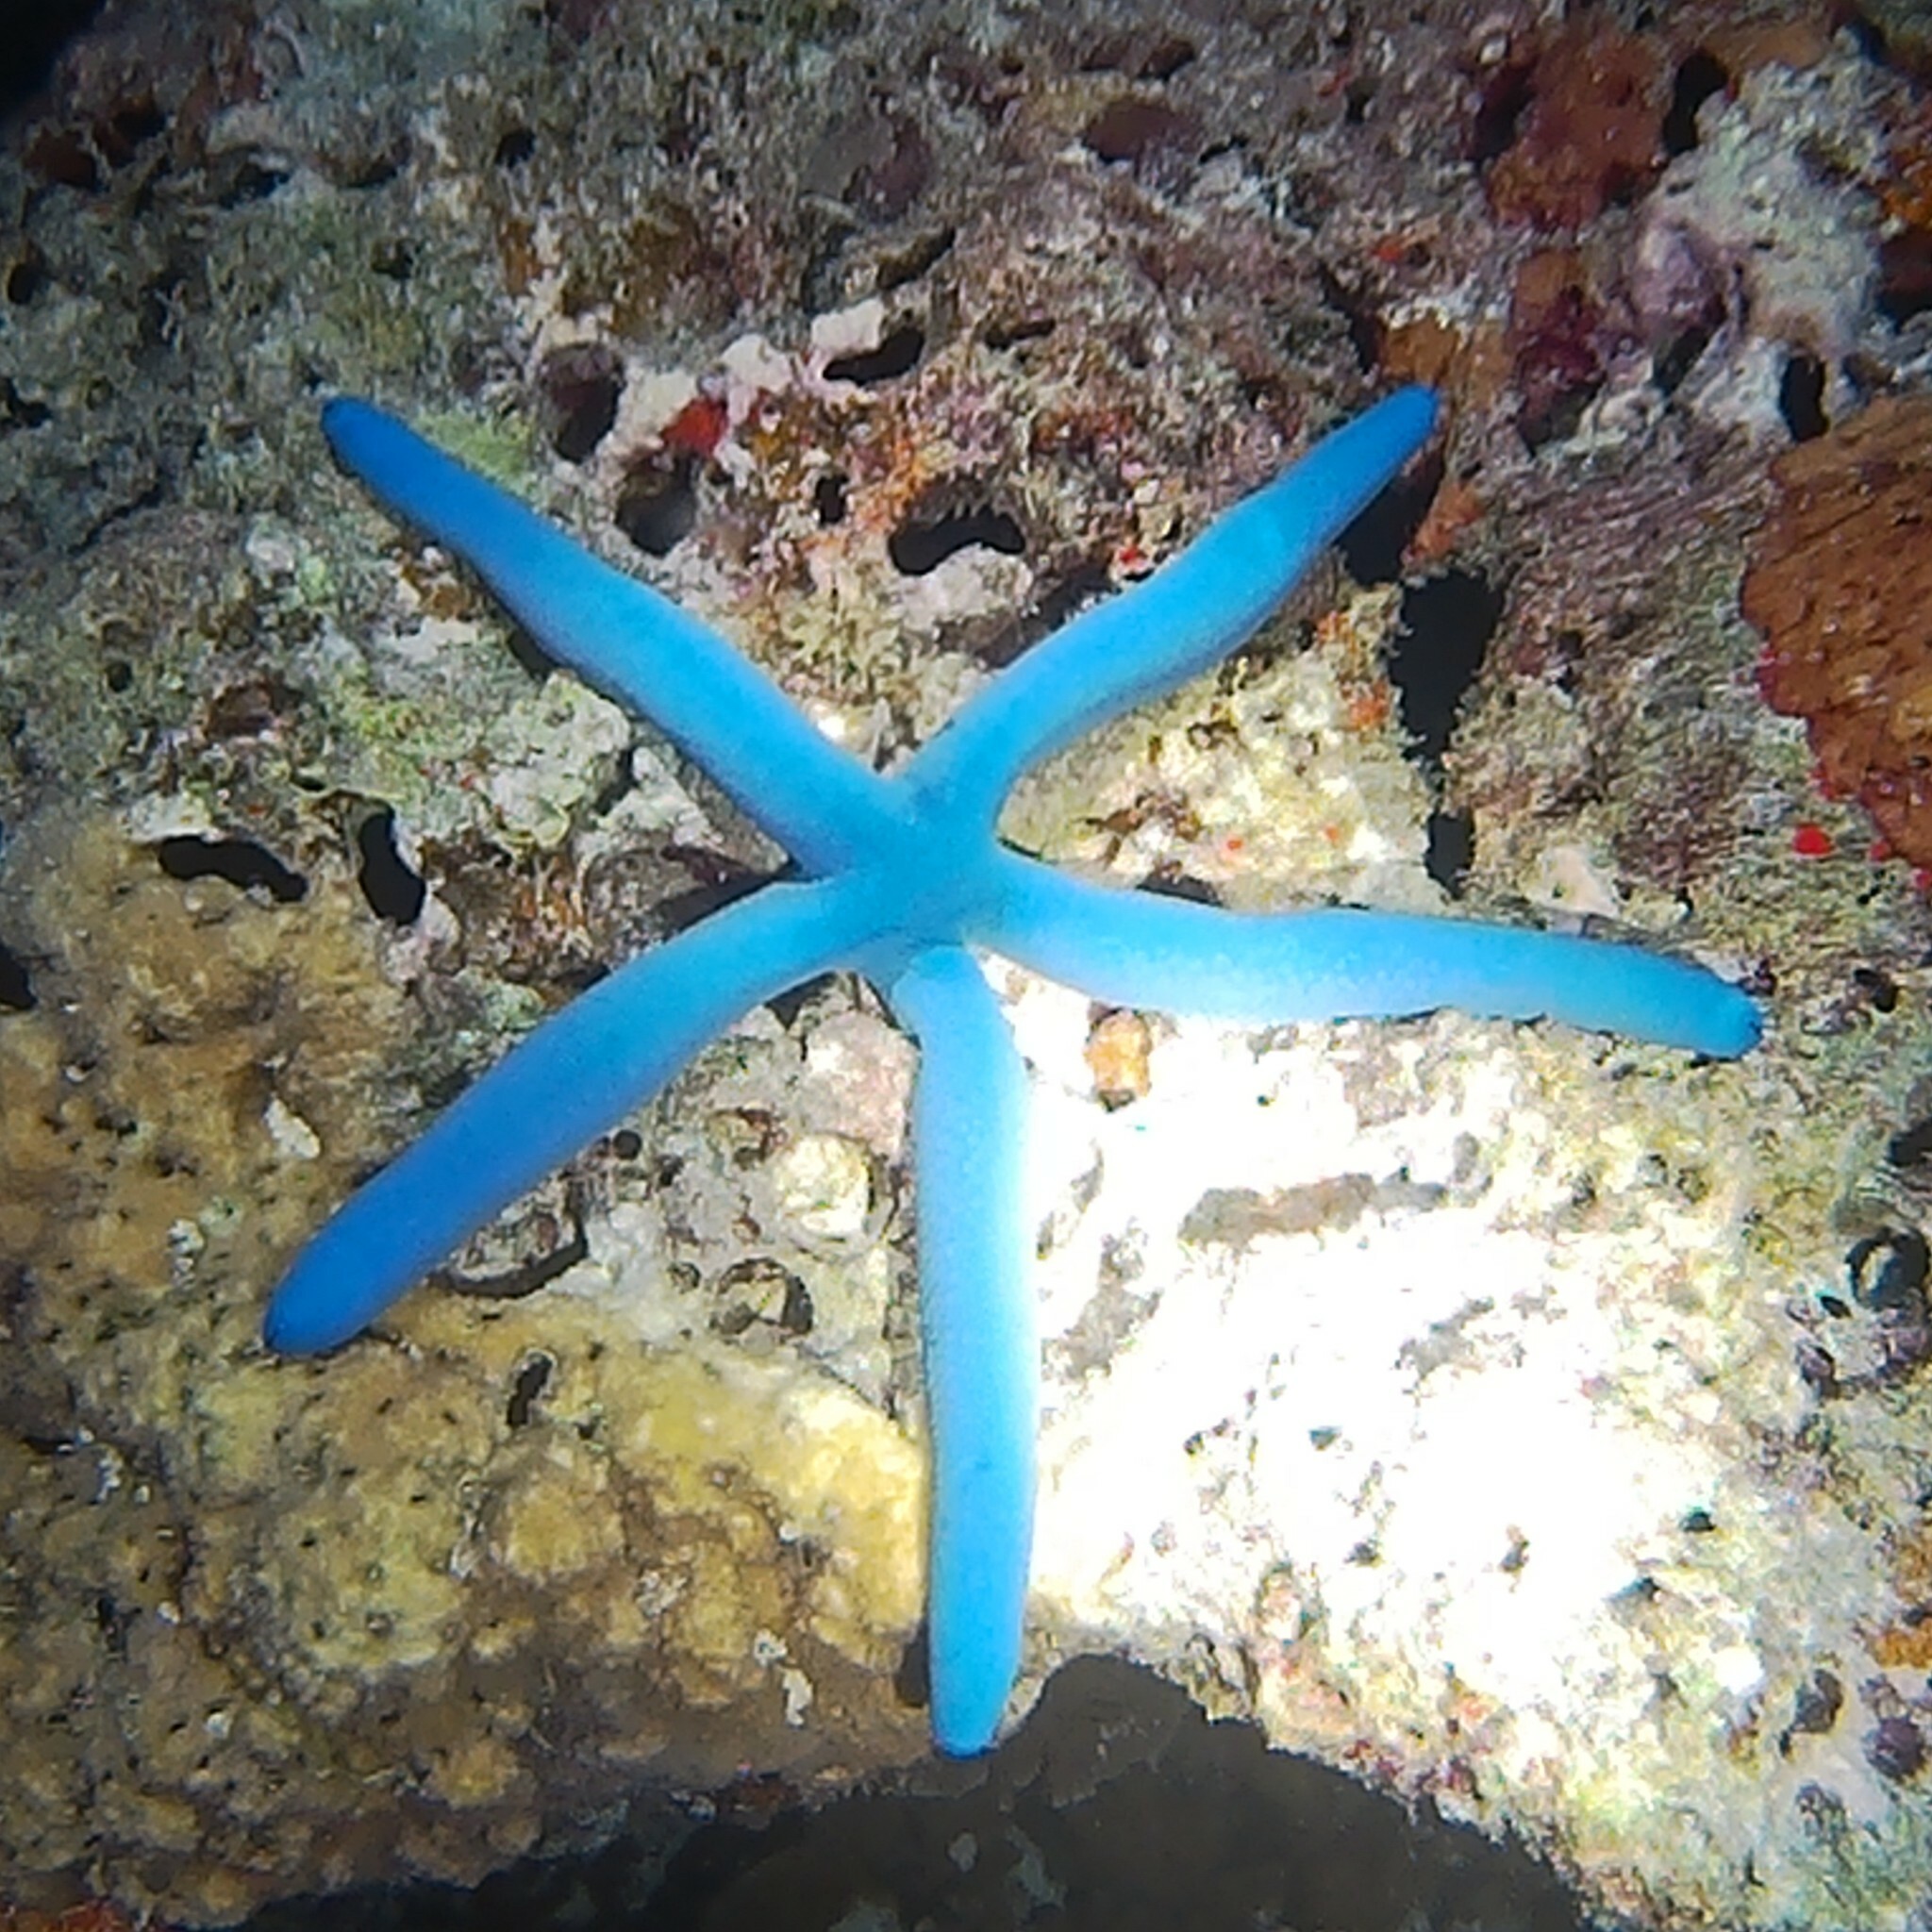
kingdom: Animalia
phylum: Echinodermata
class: Asteroidea
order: Valvatida
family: Ophidiasteridae
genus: Linckia
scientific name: Linckia laevigata
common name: Azure sea star
